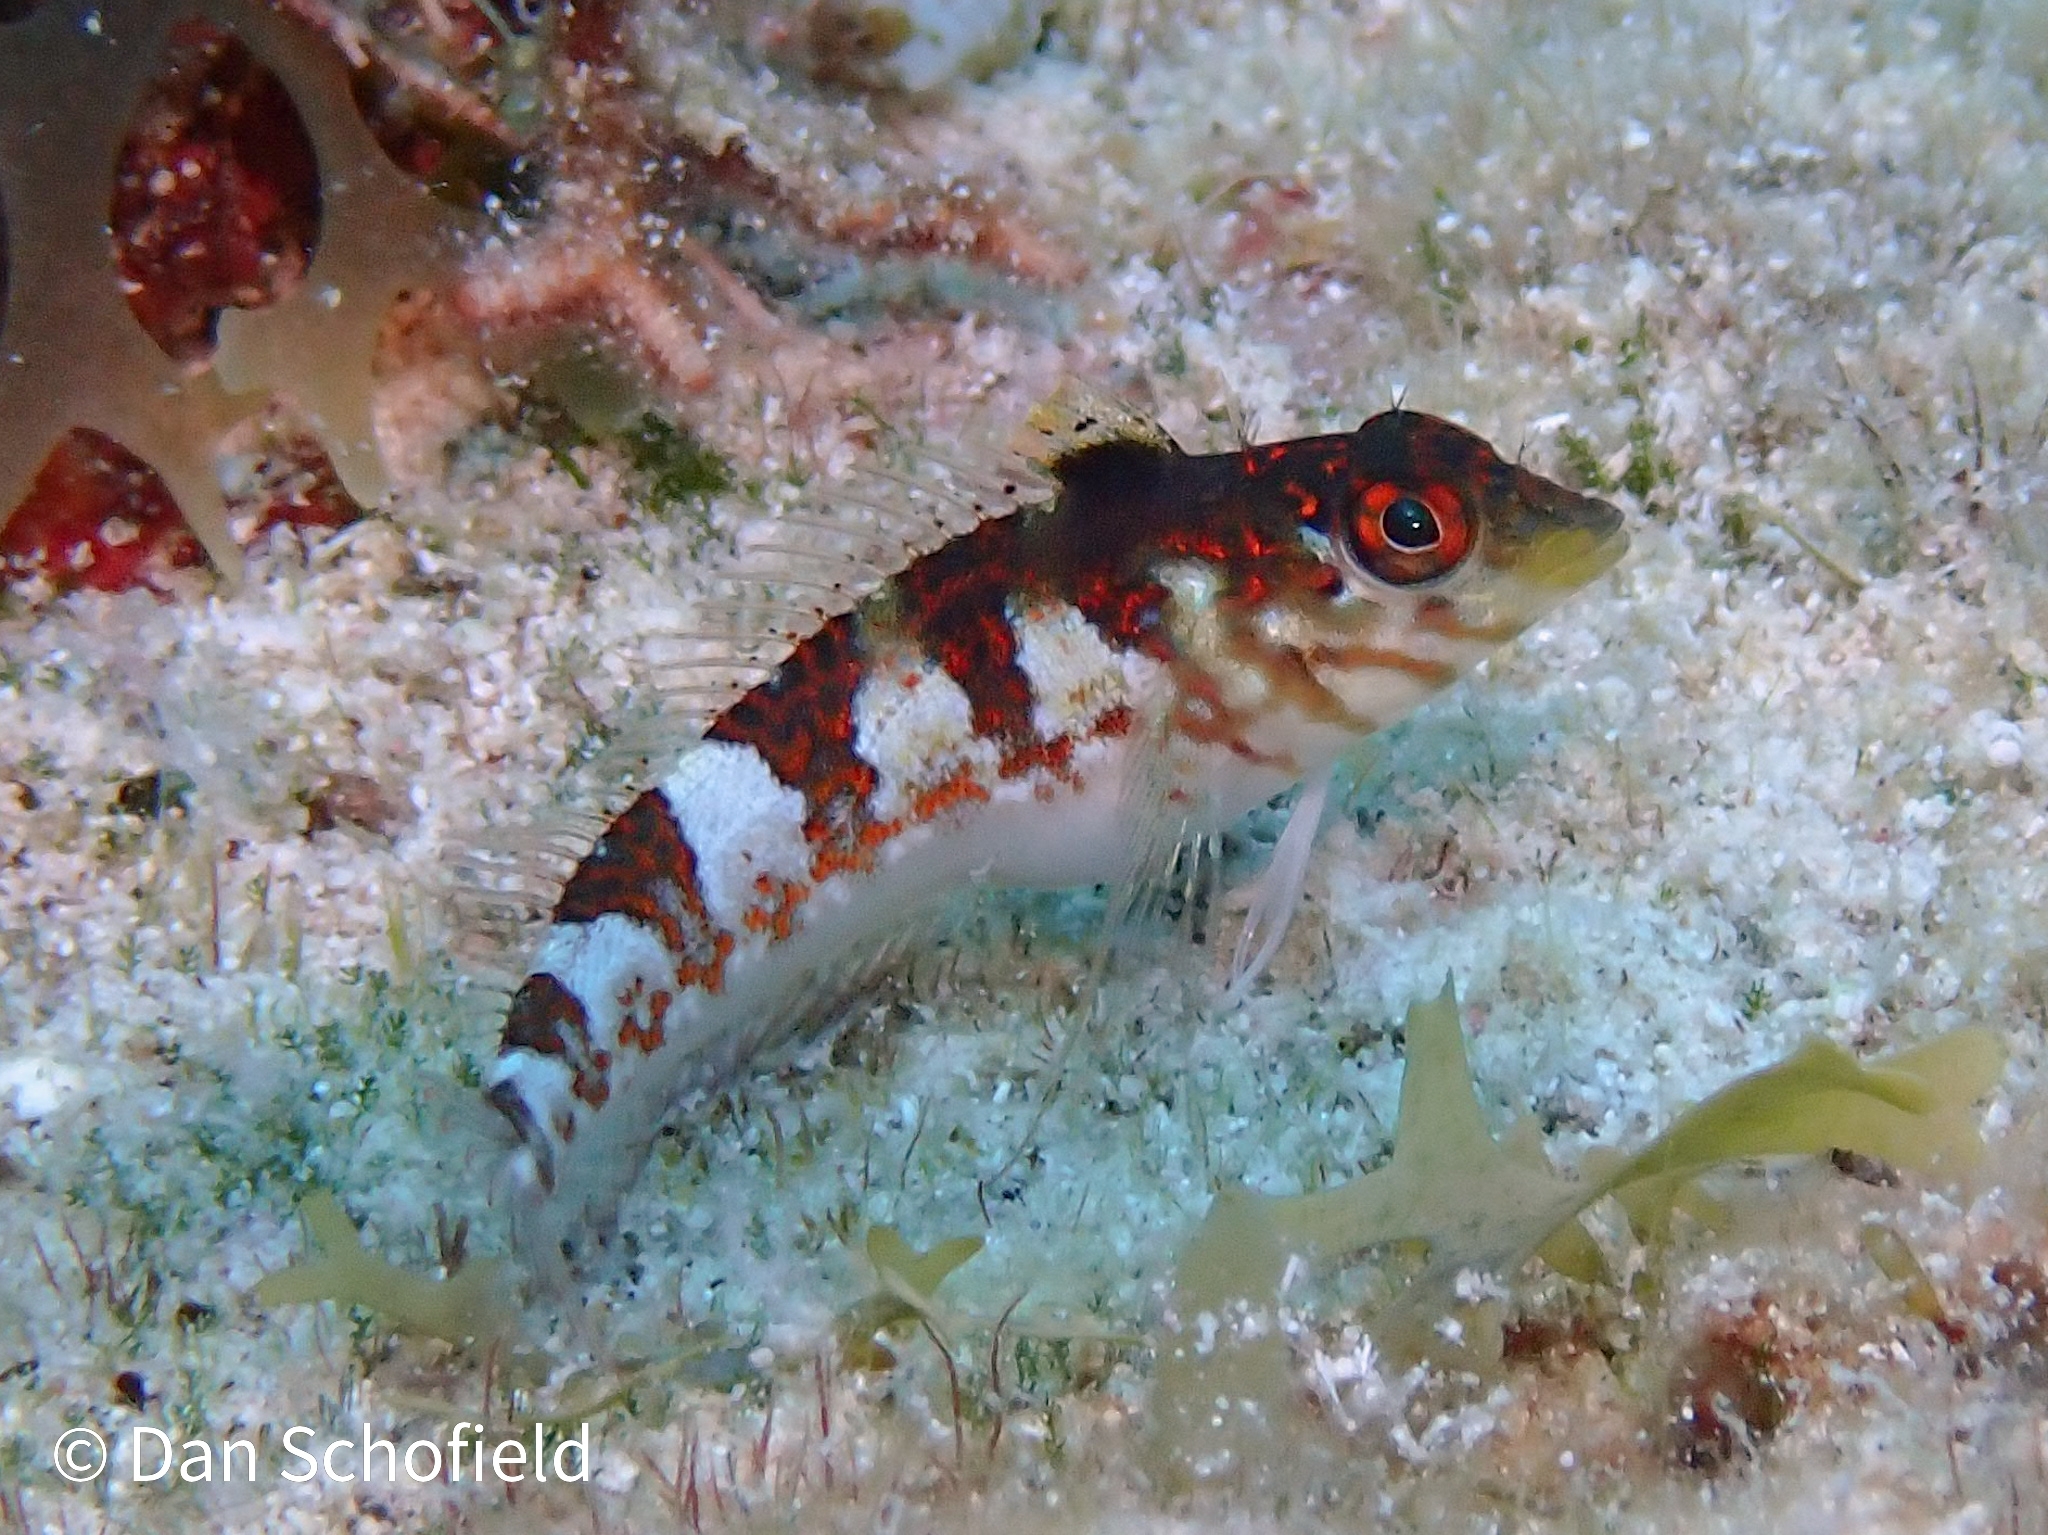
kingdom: Animalia
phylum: Chordata
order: Perciformes
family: Labrisomidae
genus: Malacoctenus
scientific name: Malacoctenus triangulatus
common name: Saddled blenny
